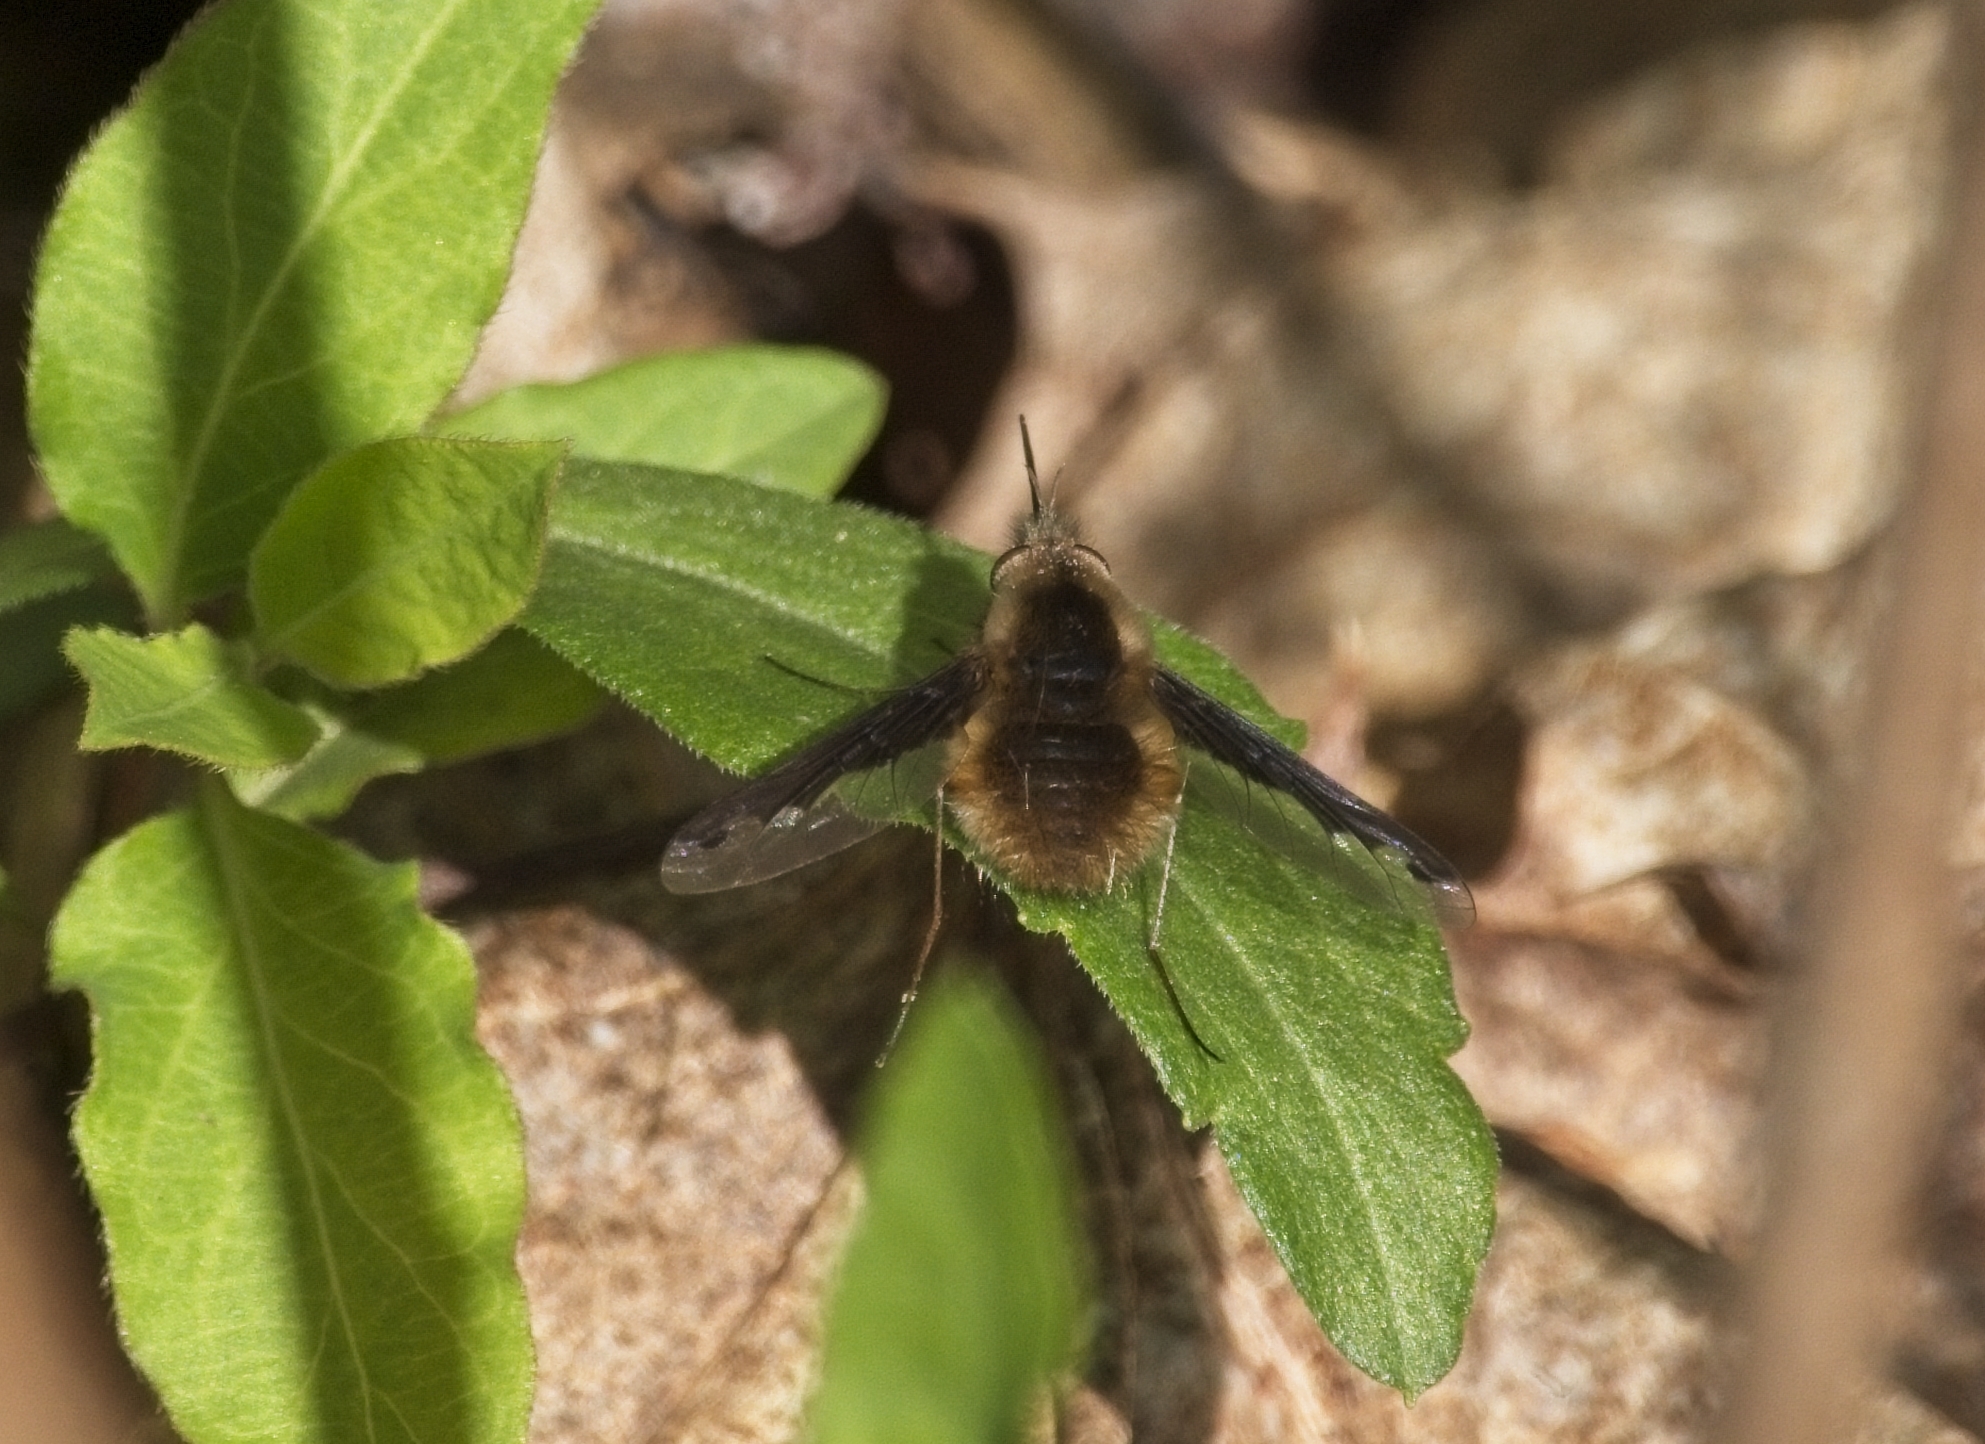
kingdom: Animalia
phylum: Arthropoda
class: Insecta
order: Diptera
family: Bombyliidae
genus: Bombylius
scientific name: Bombylius major
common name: Bee fly
